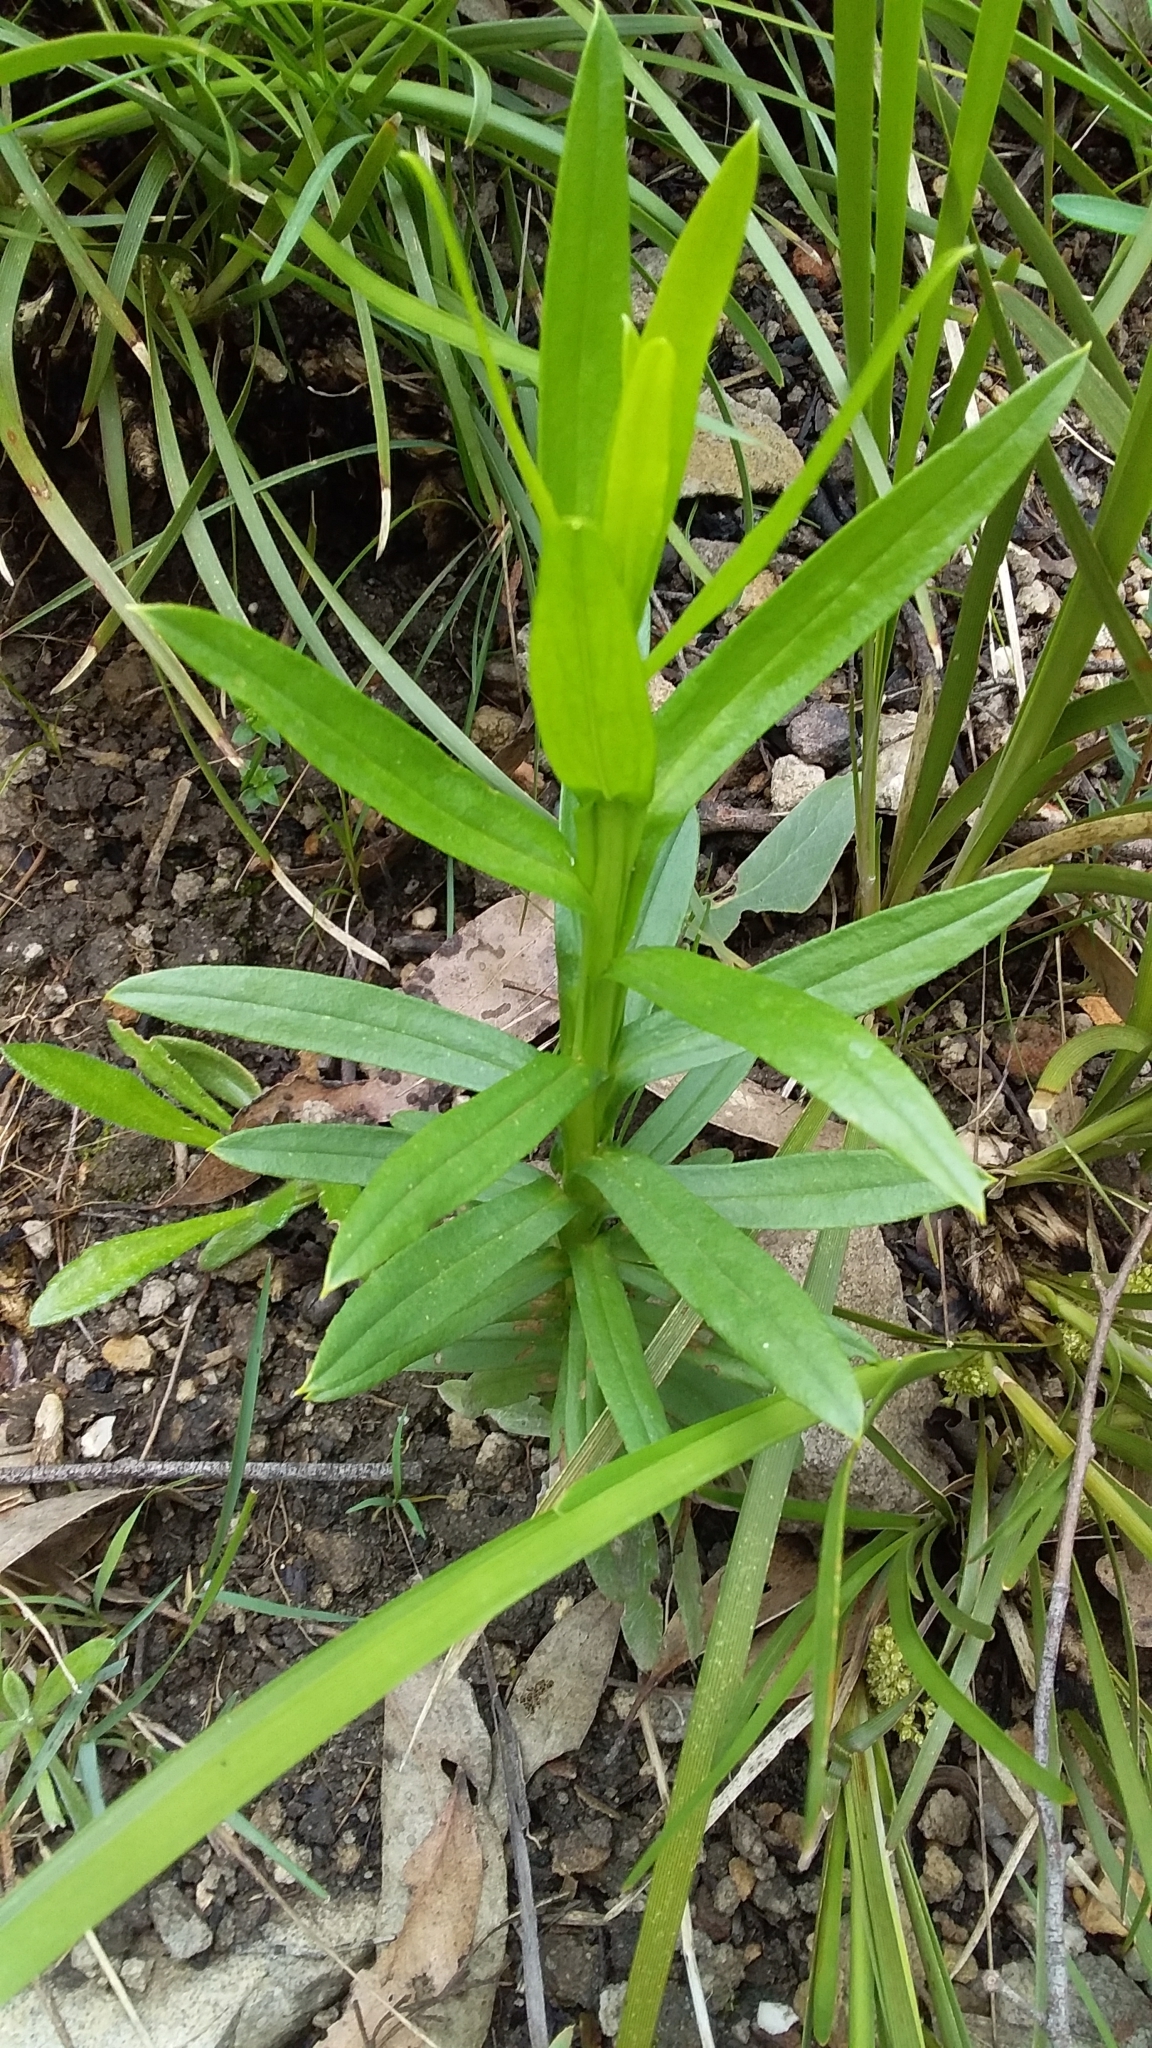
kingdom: Plantae
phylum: Tracheophyta
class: Magnoliopsida
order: Asterales
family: Asteraceae
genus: Ixodia
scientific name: Ixodia achillaeoides
